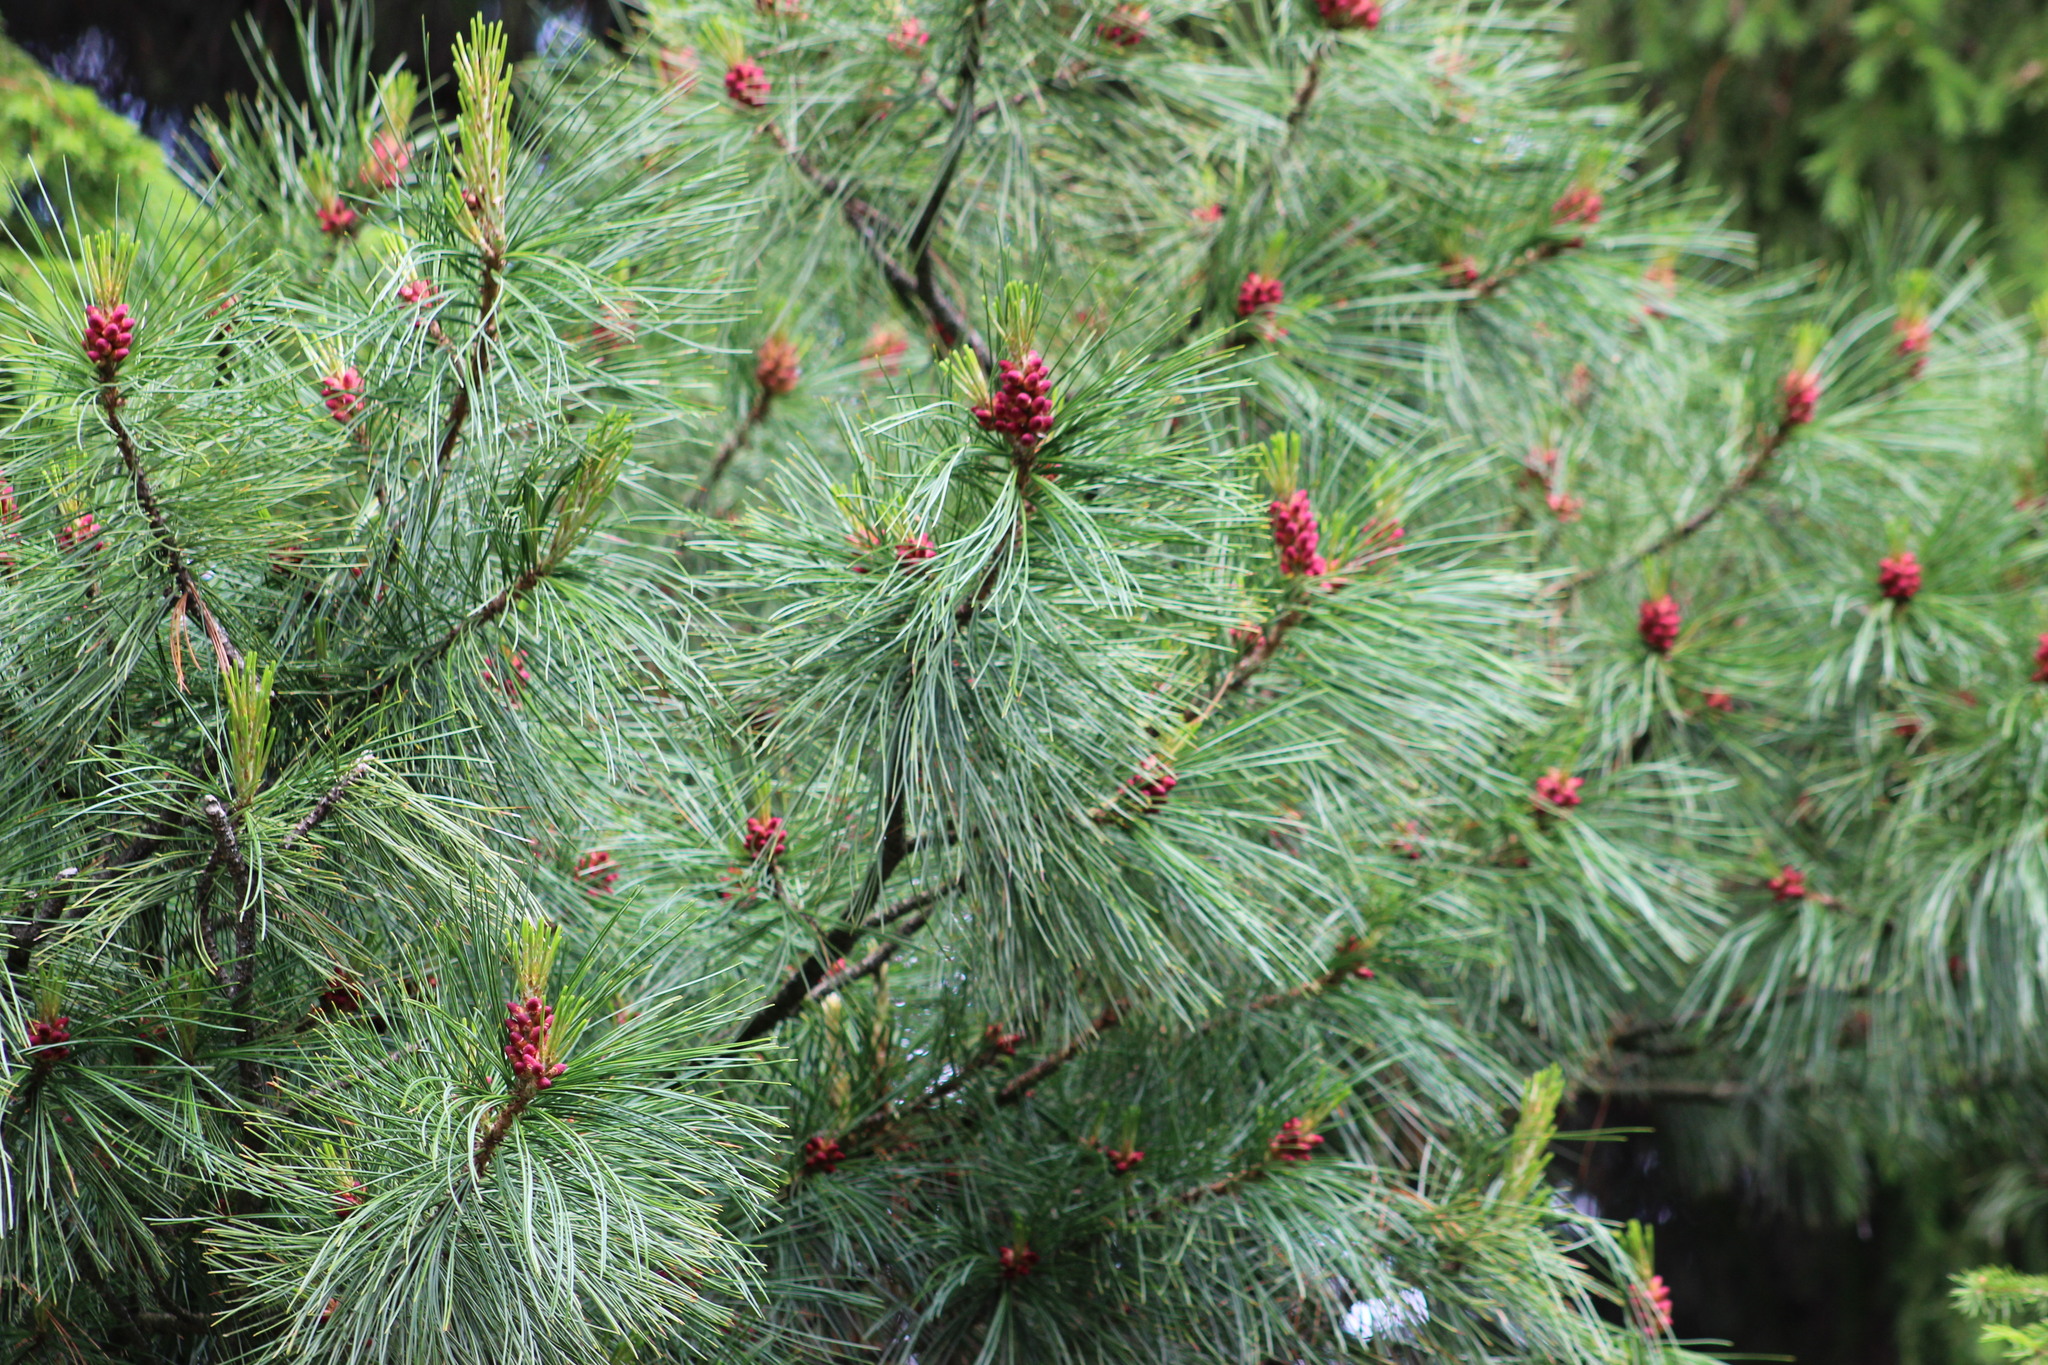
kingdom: Plantae
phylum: Tracheophyta
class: Pinopsida
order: Pinales
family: Pinaceae
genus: Pinus
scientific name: Pinus sibirica
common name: Siberian pine
